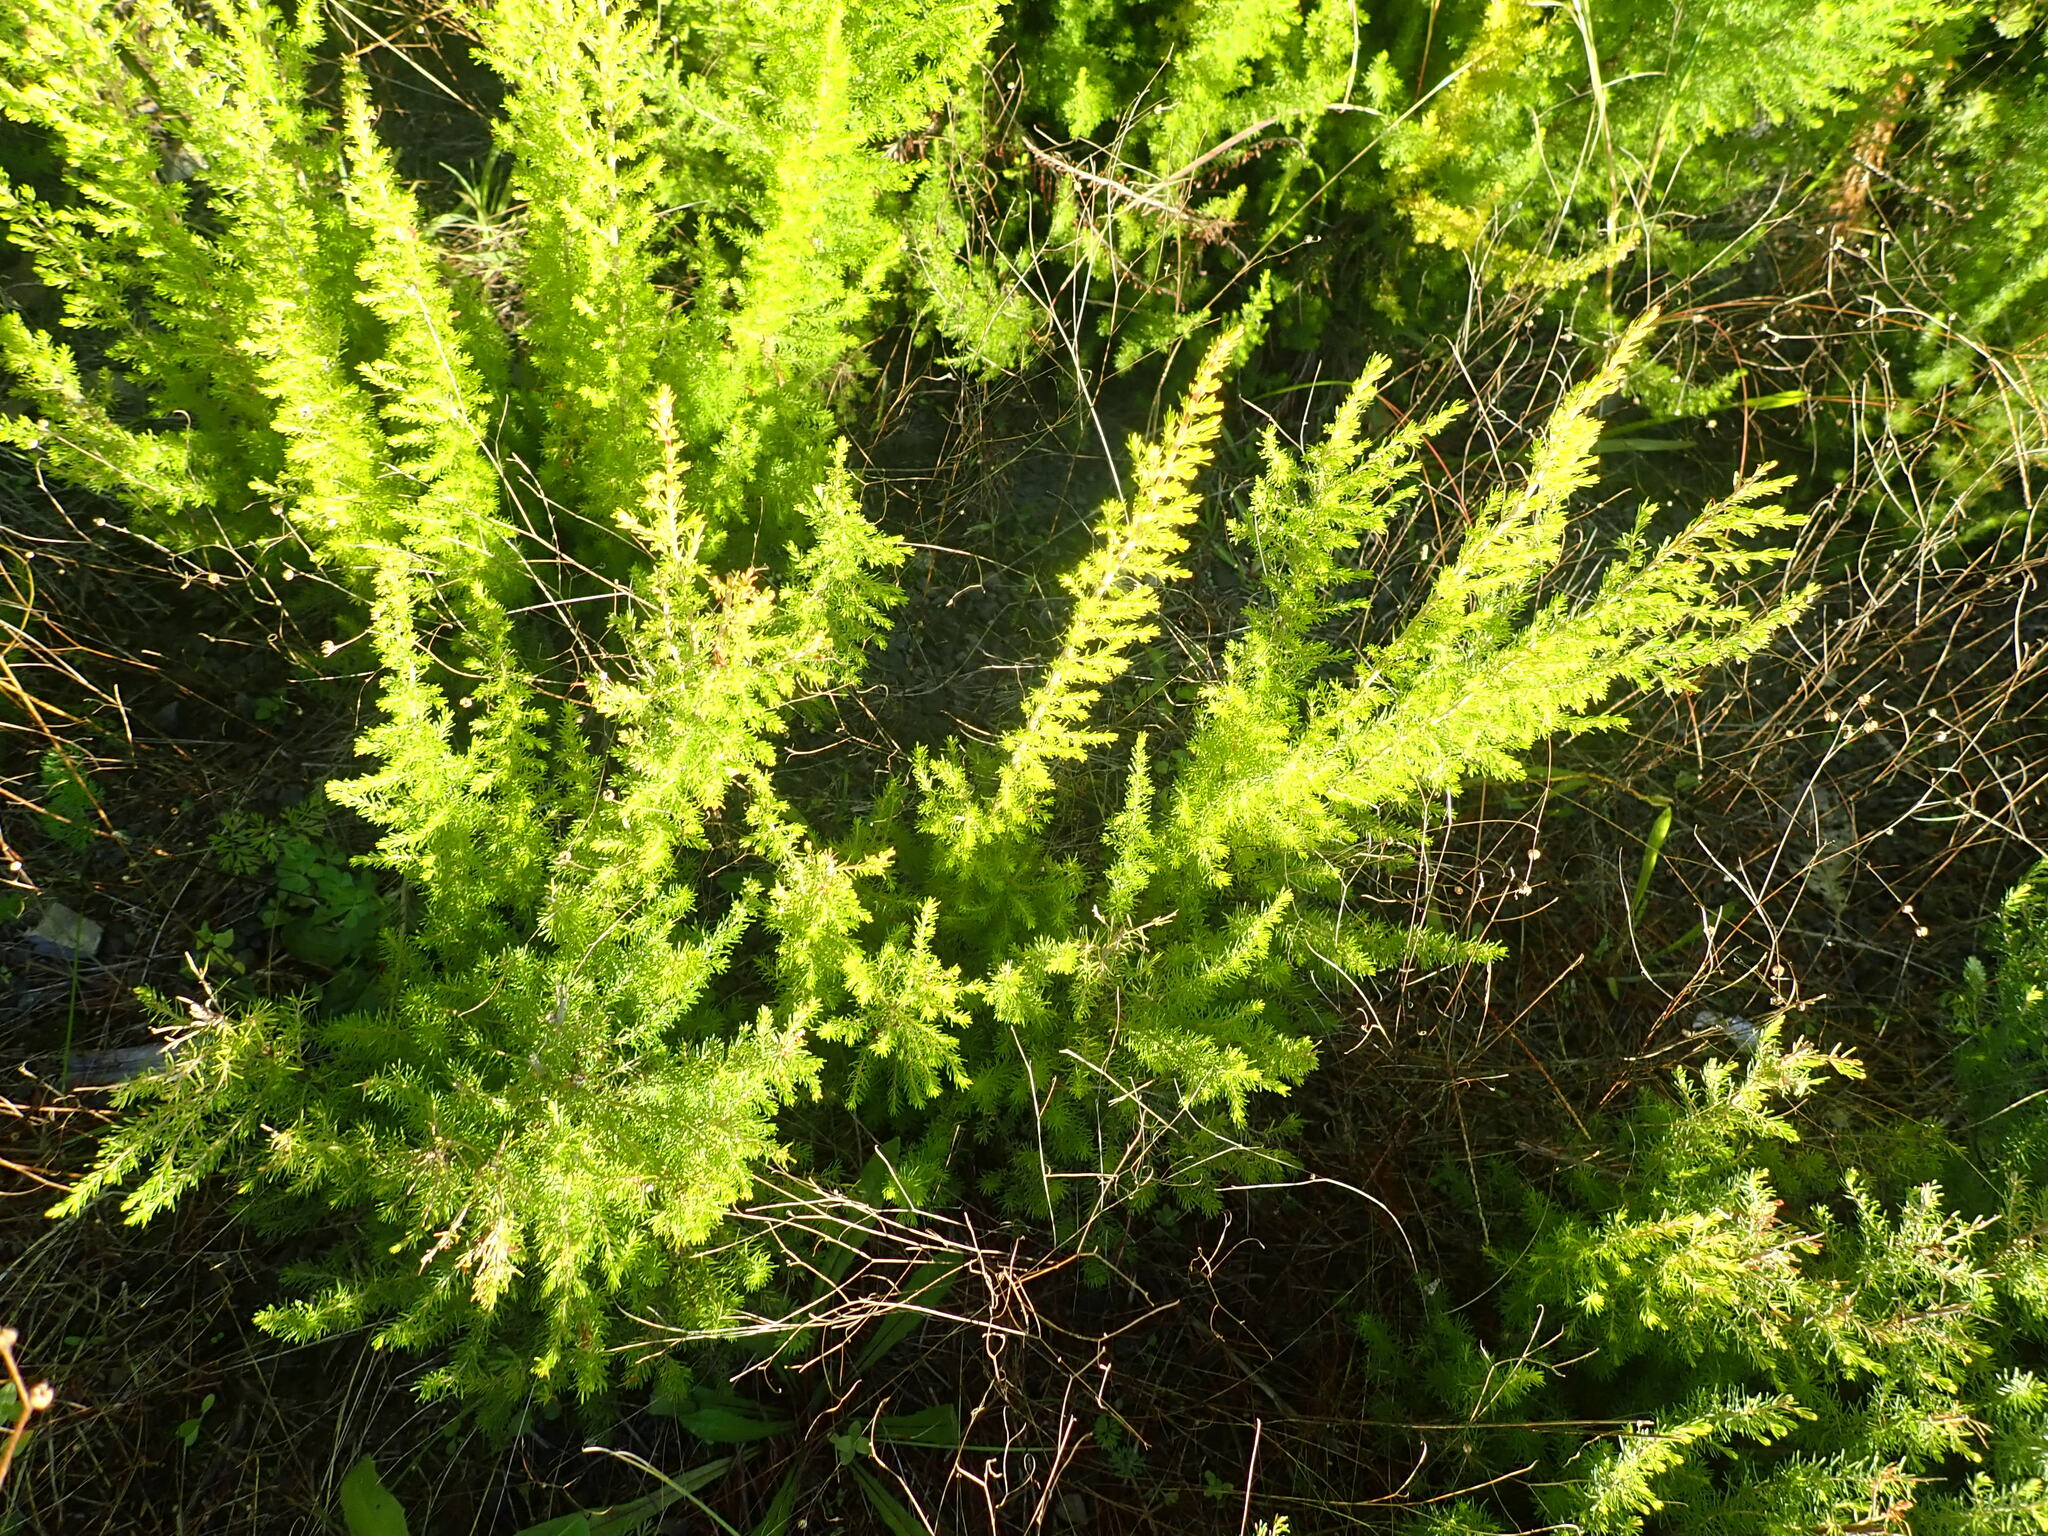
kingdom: Plantae
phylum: Tracheophyta
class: Magnoliopsida
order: Ericales
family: Ericaceae
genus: Erica
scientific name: Erica lusitanica
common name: Spanish heath
